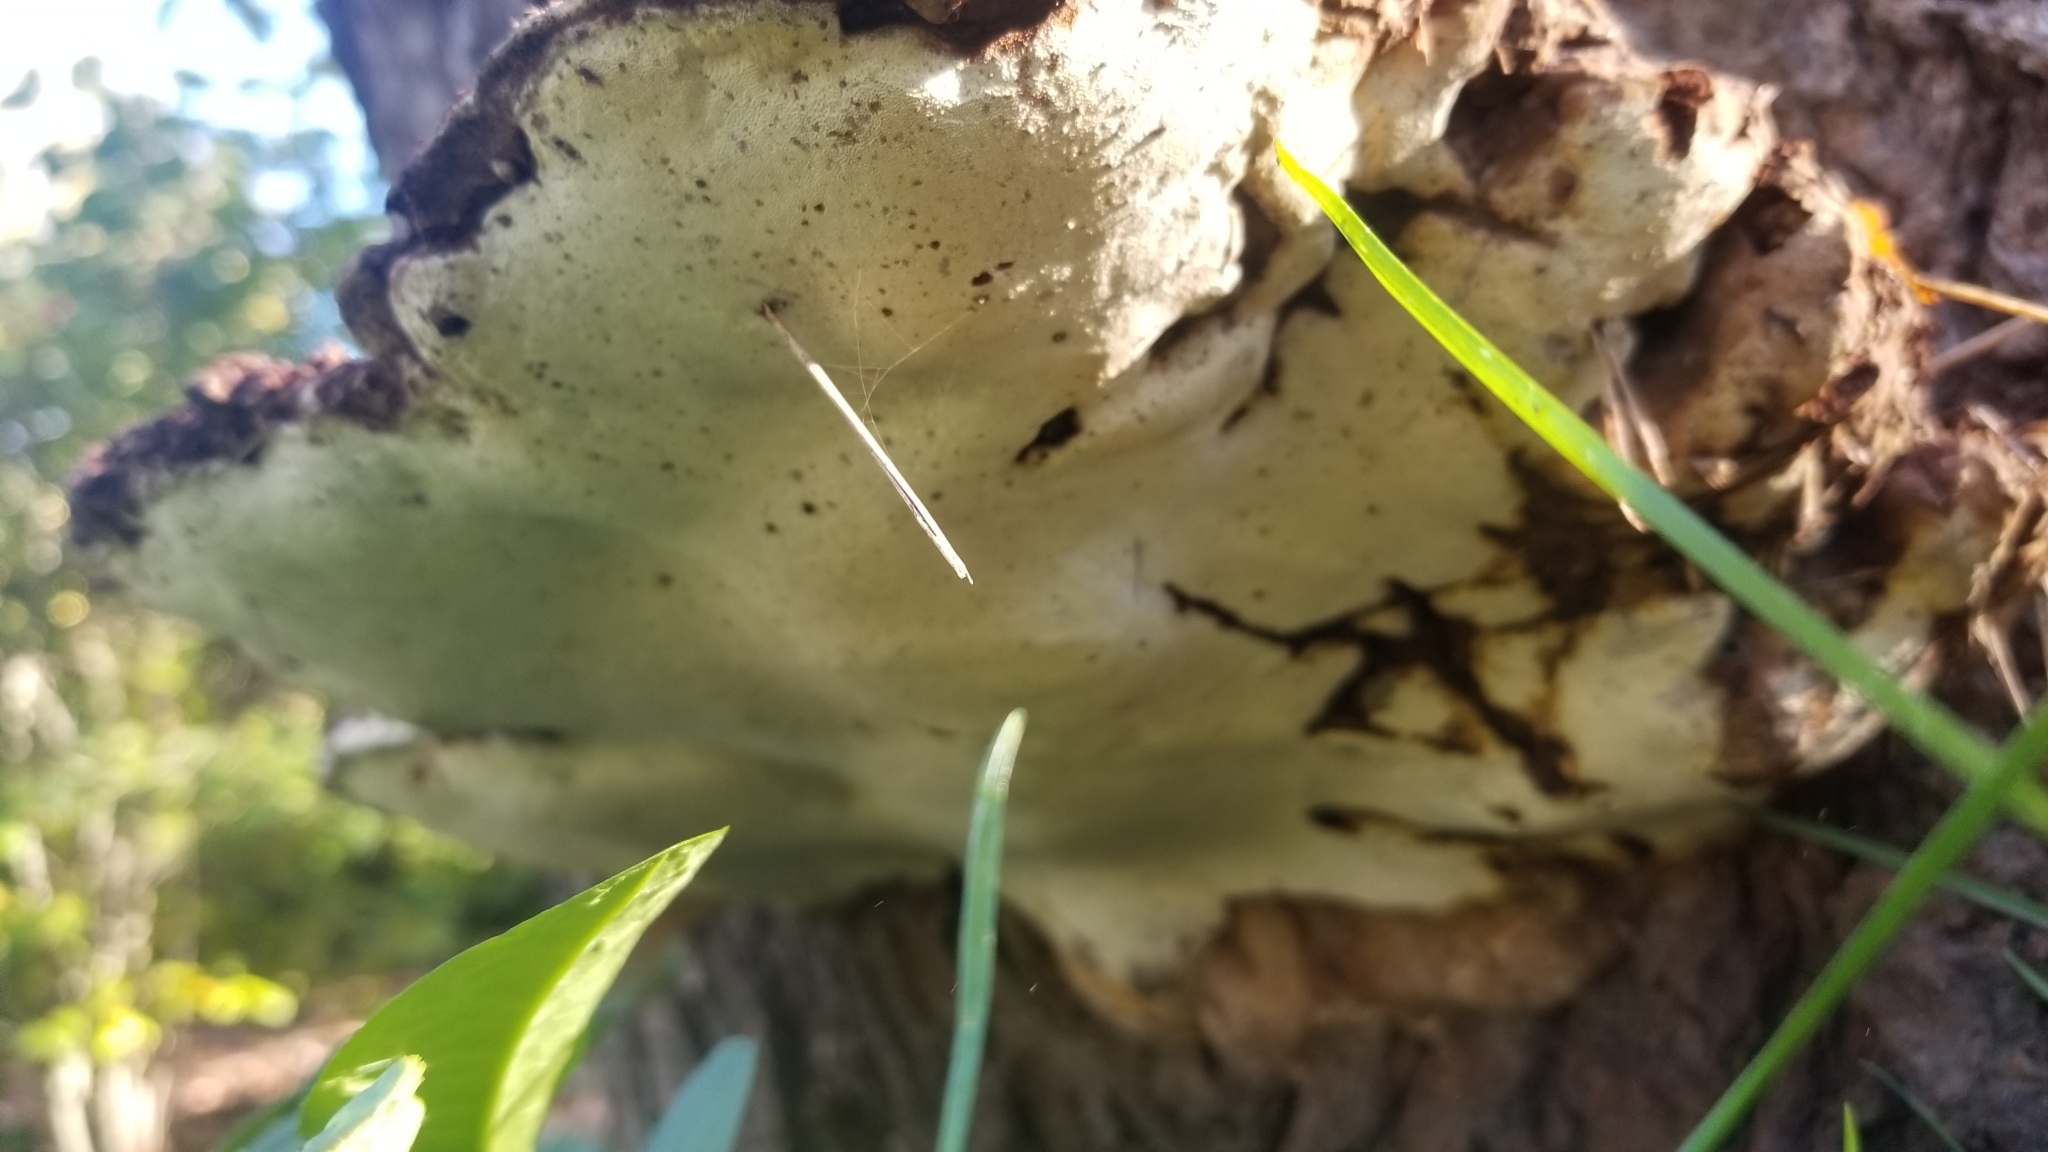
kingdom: Fungi
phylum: Basidiomycota
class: Agaricomycetes
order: Polyporales
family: Polyporaceae
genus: Ganoderma
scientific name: Ganoderma lobatum
